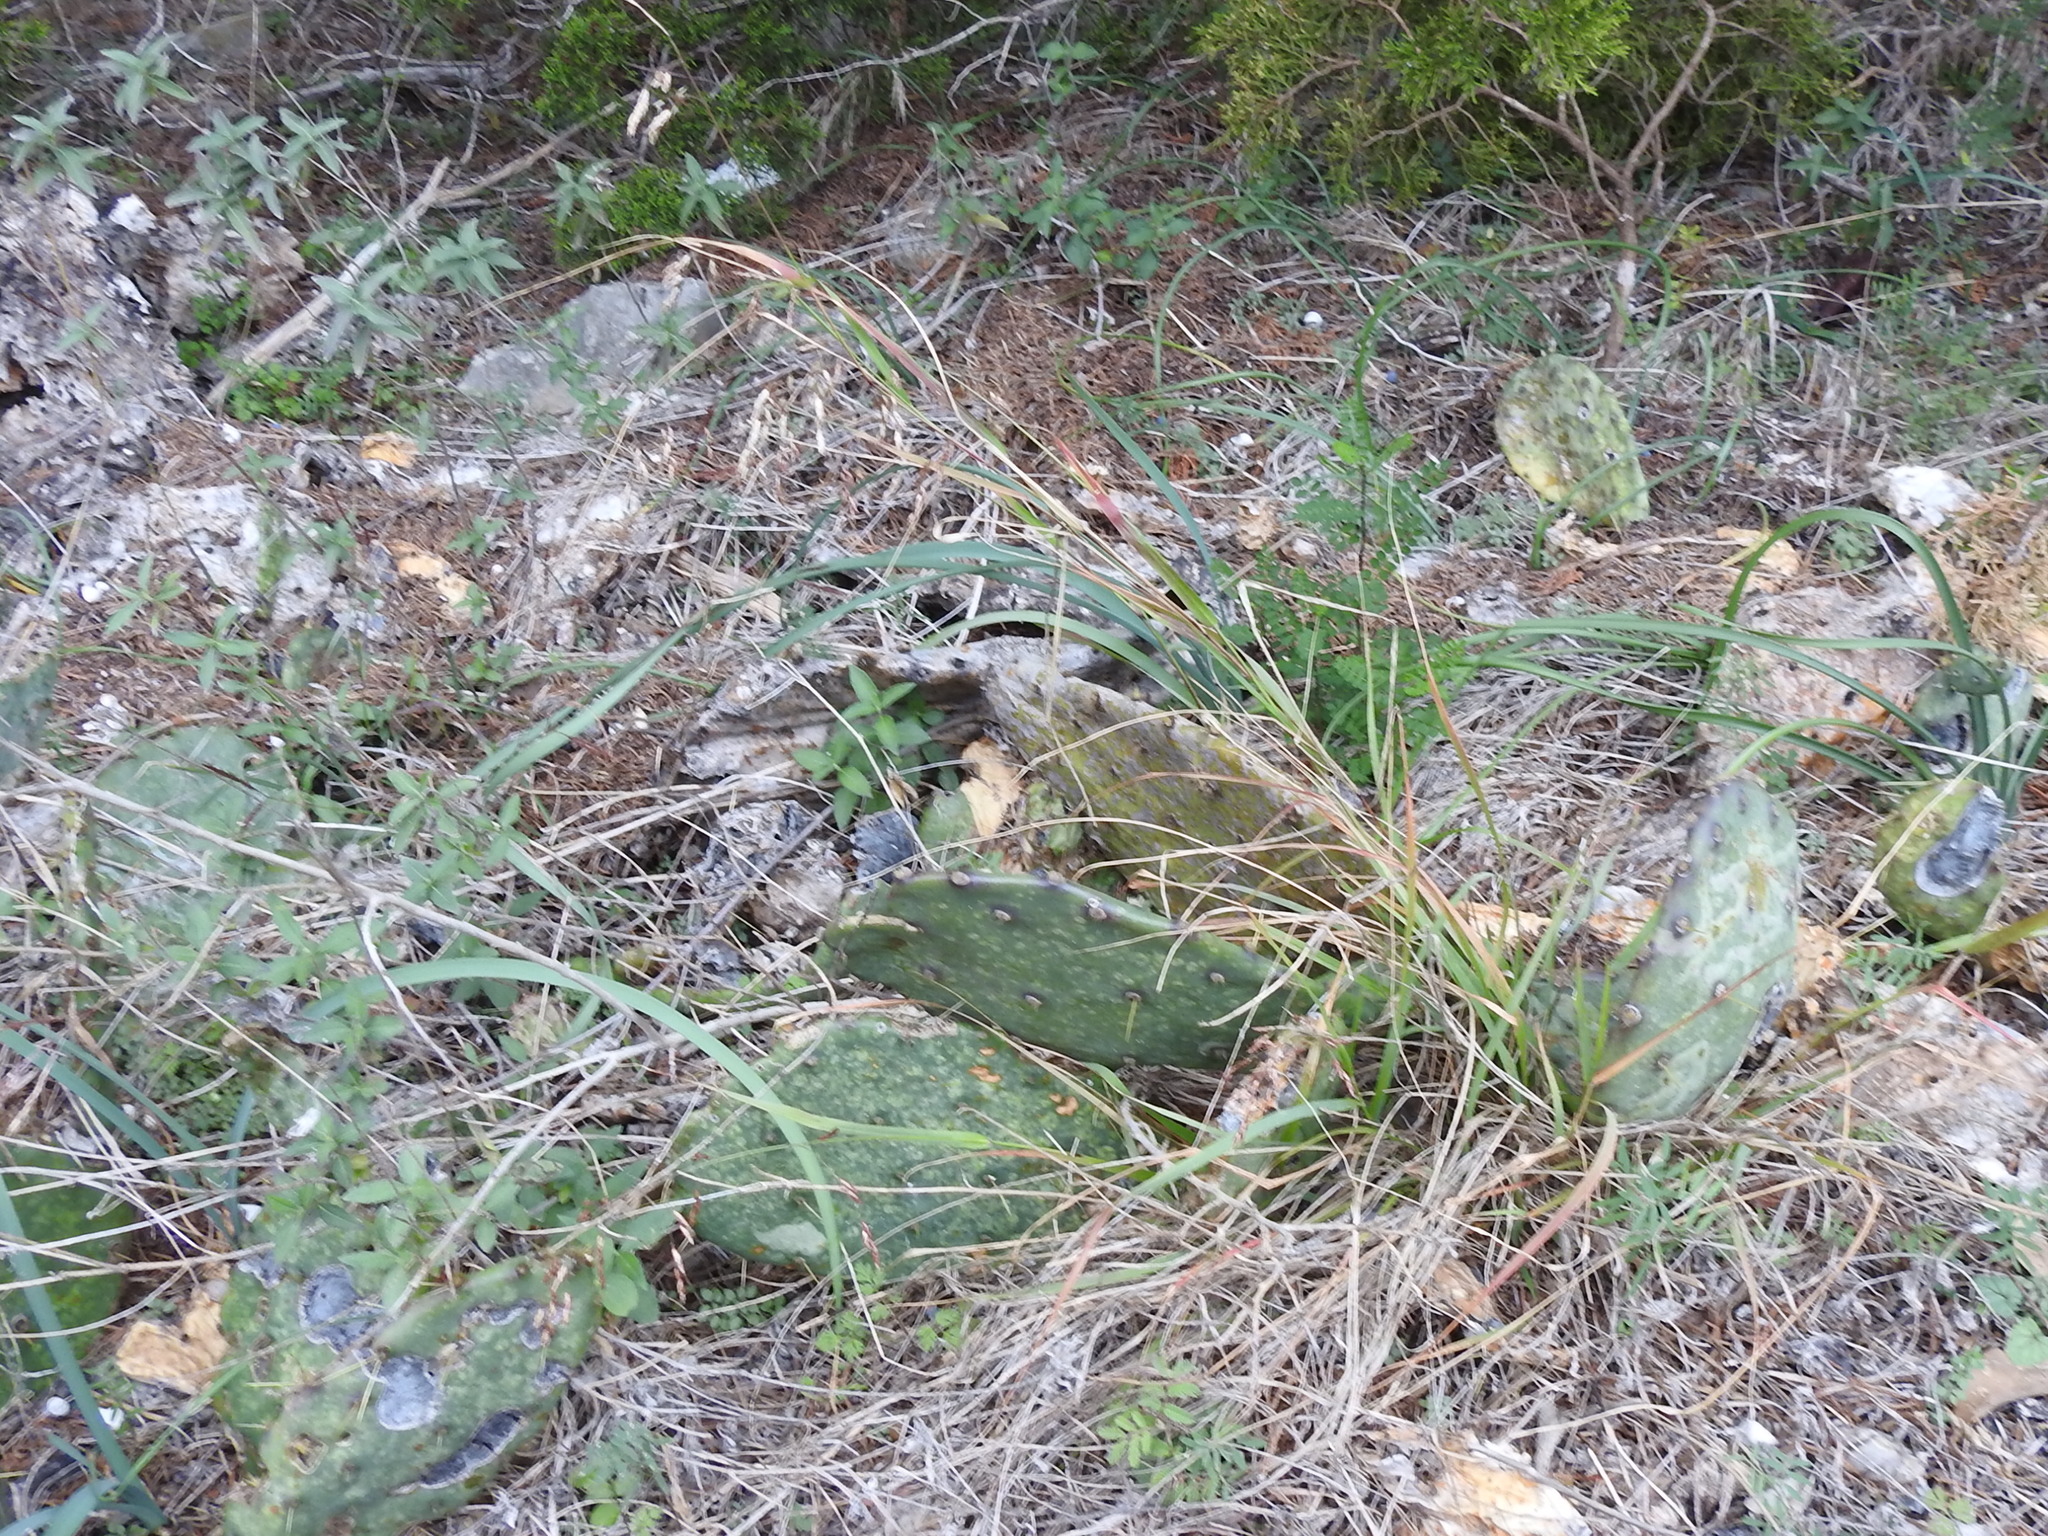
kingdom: Plantae
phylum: Tracheophyta
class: Liliopsida
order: Poales
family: Poaceae
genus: Tridens
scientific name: Tridens texanus
